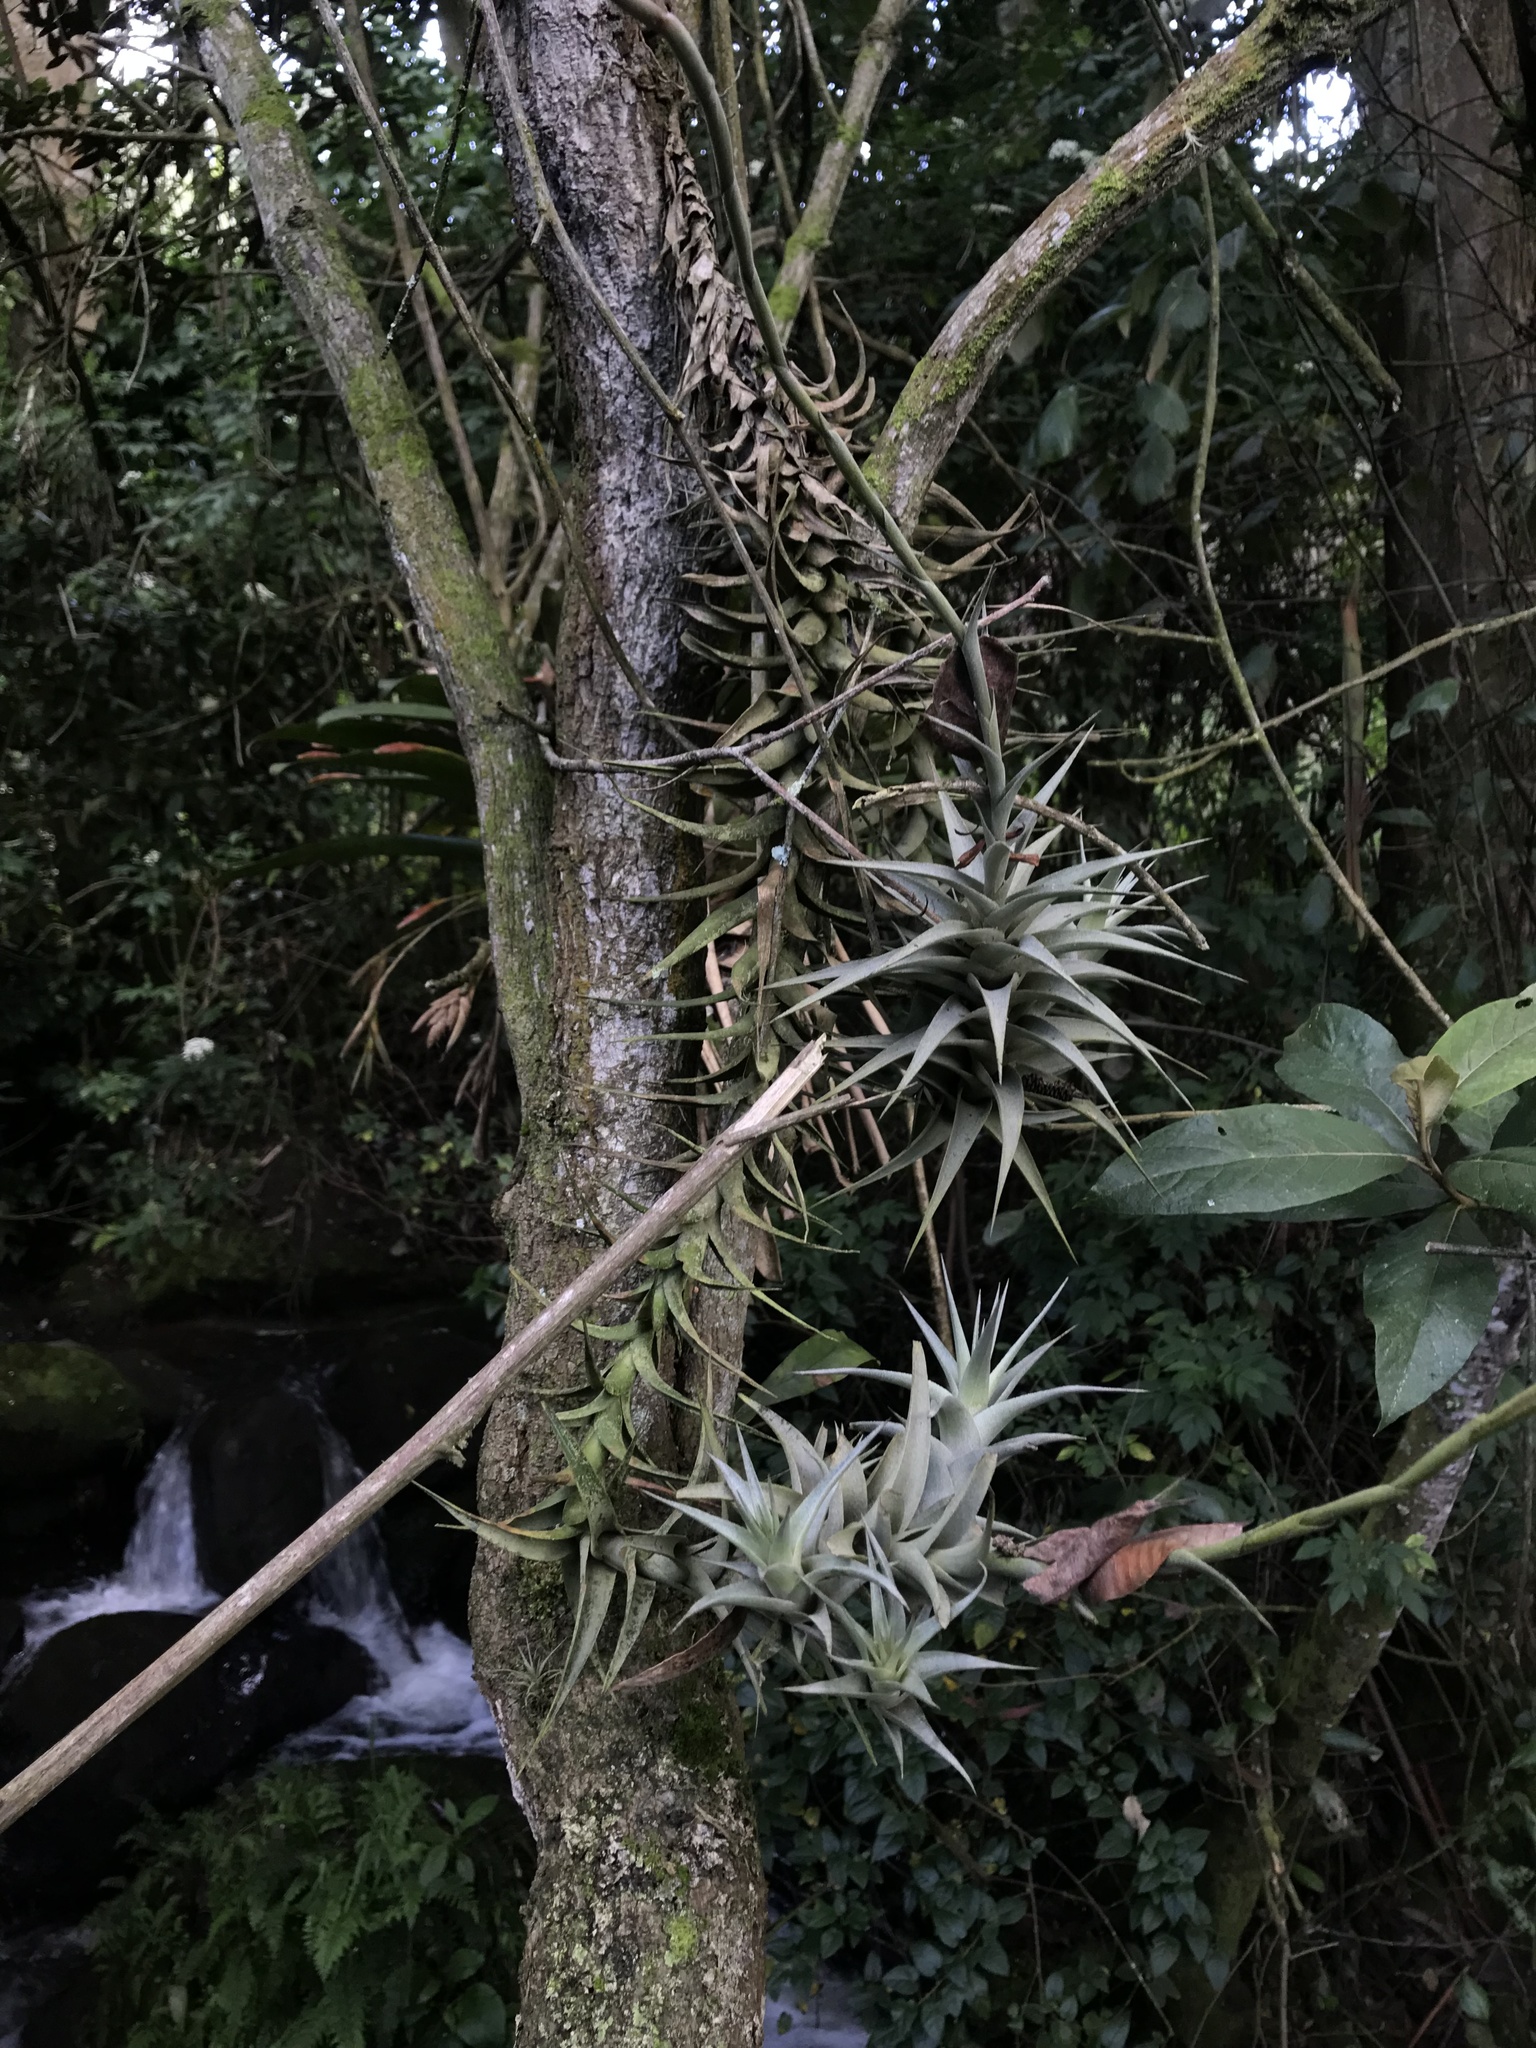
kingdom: Plantae
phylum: Tracheophyta
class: Liliopsida
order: Poales
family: Bromeliaceae
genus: Tillandsia
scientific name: Tillandsia incarnata
